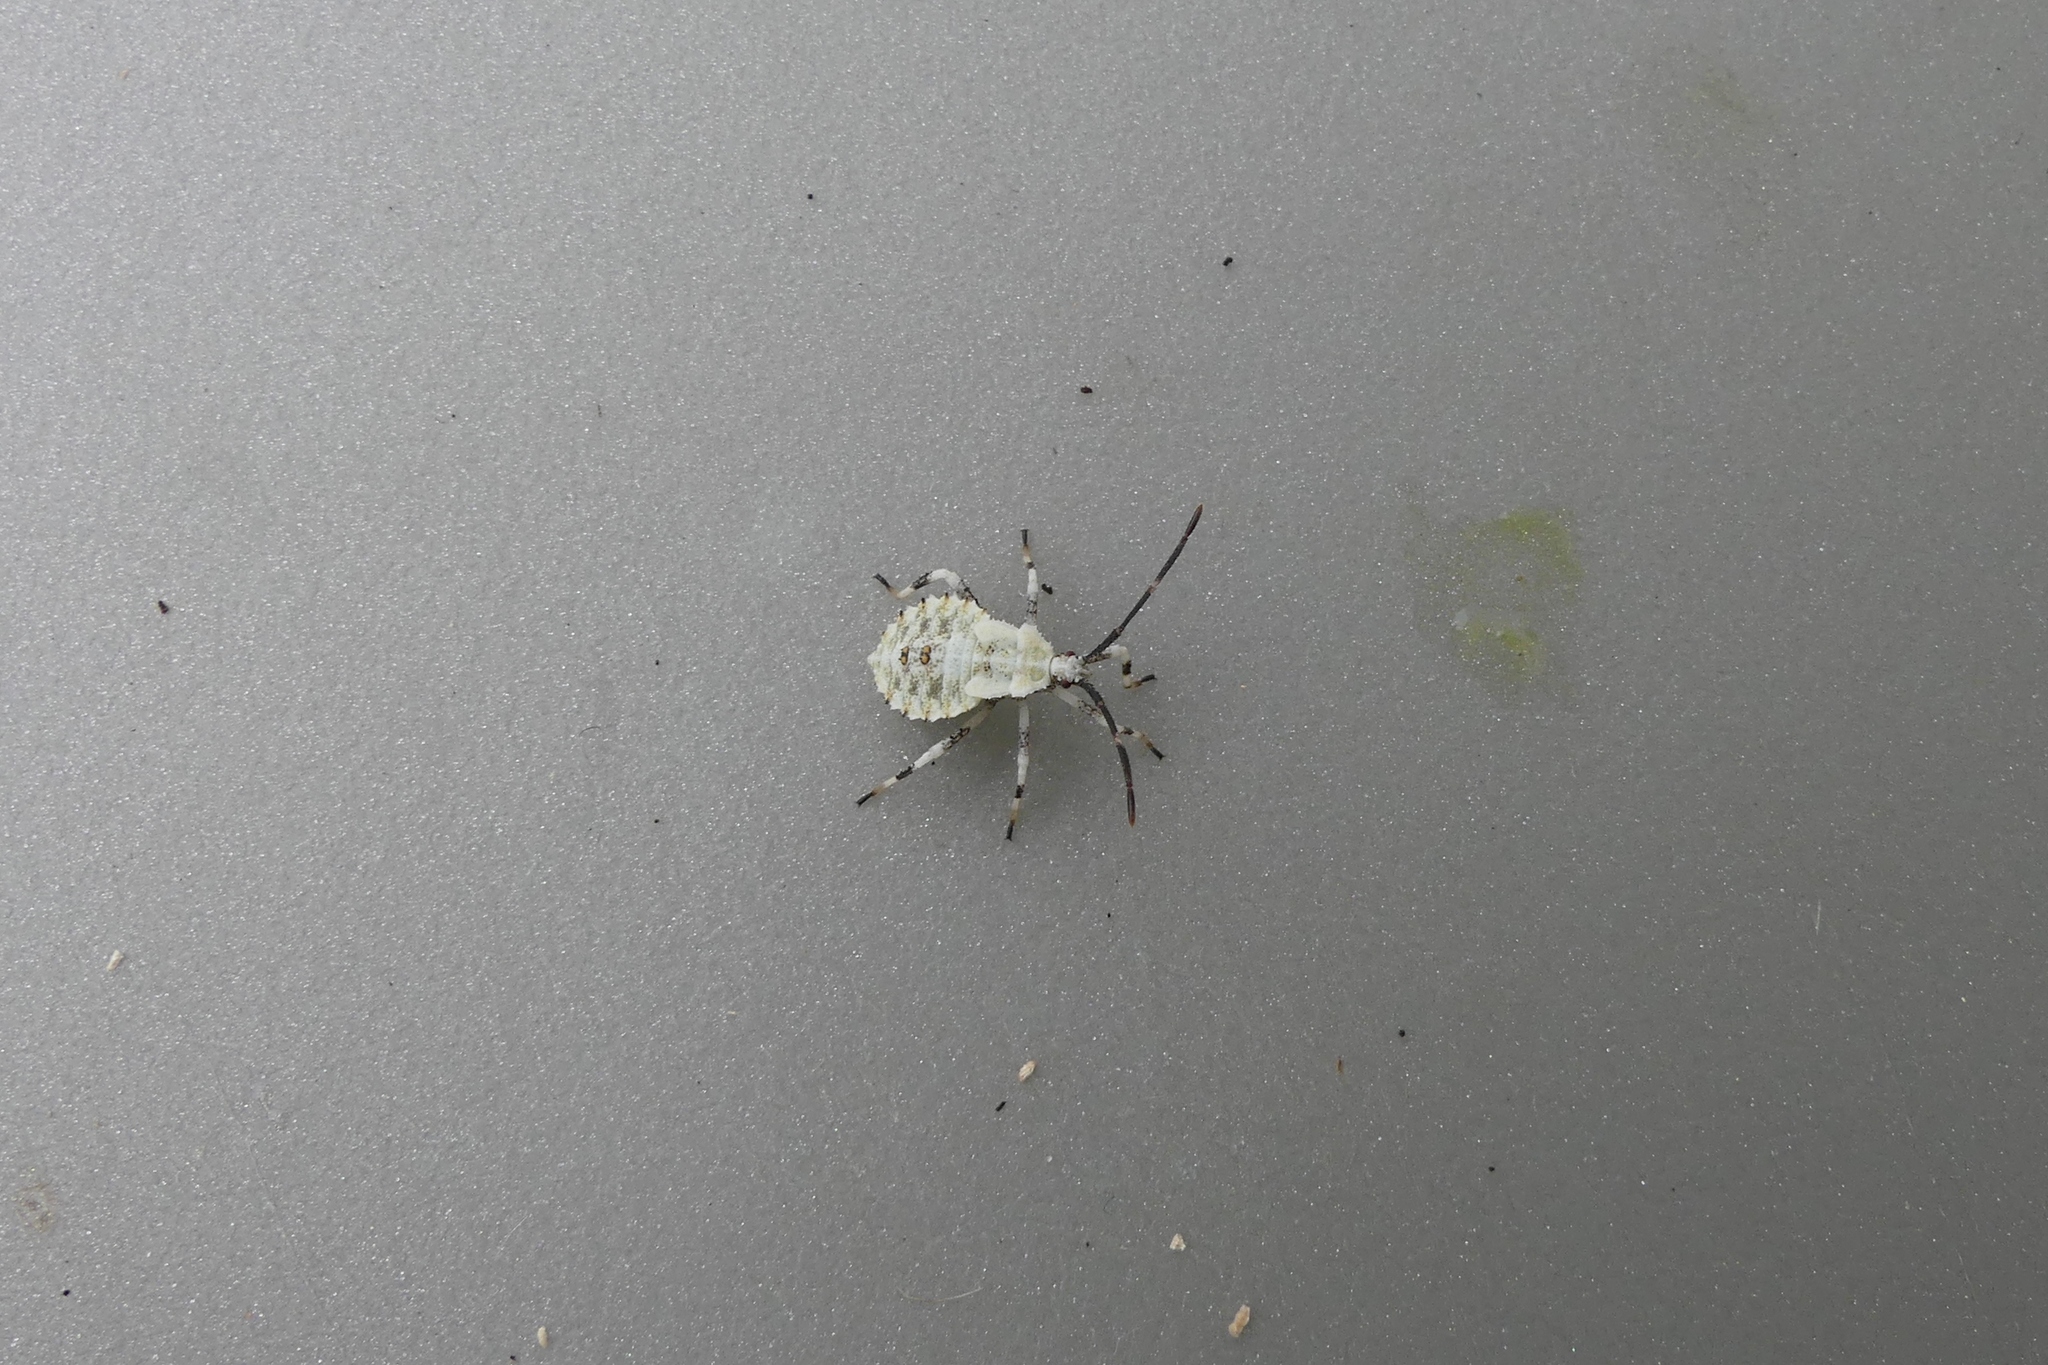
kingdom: Animalia
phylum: Arthropoda
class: Insecta
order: Hemiptera
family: Coreidae
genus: Anasa
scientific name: Anasa armigera
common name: Horned squash bug
